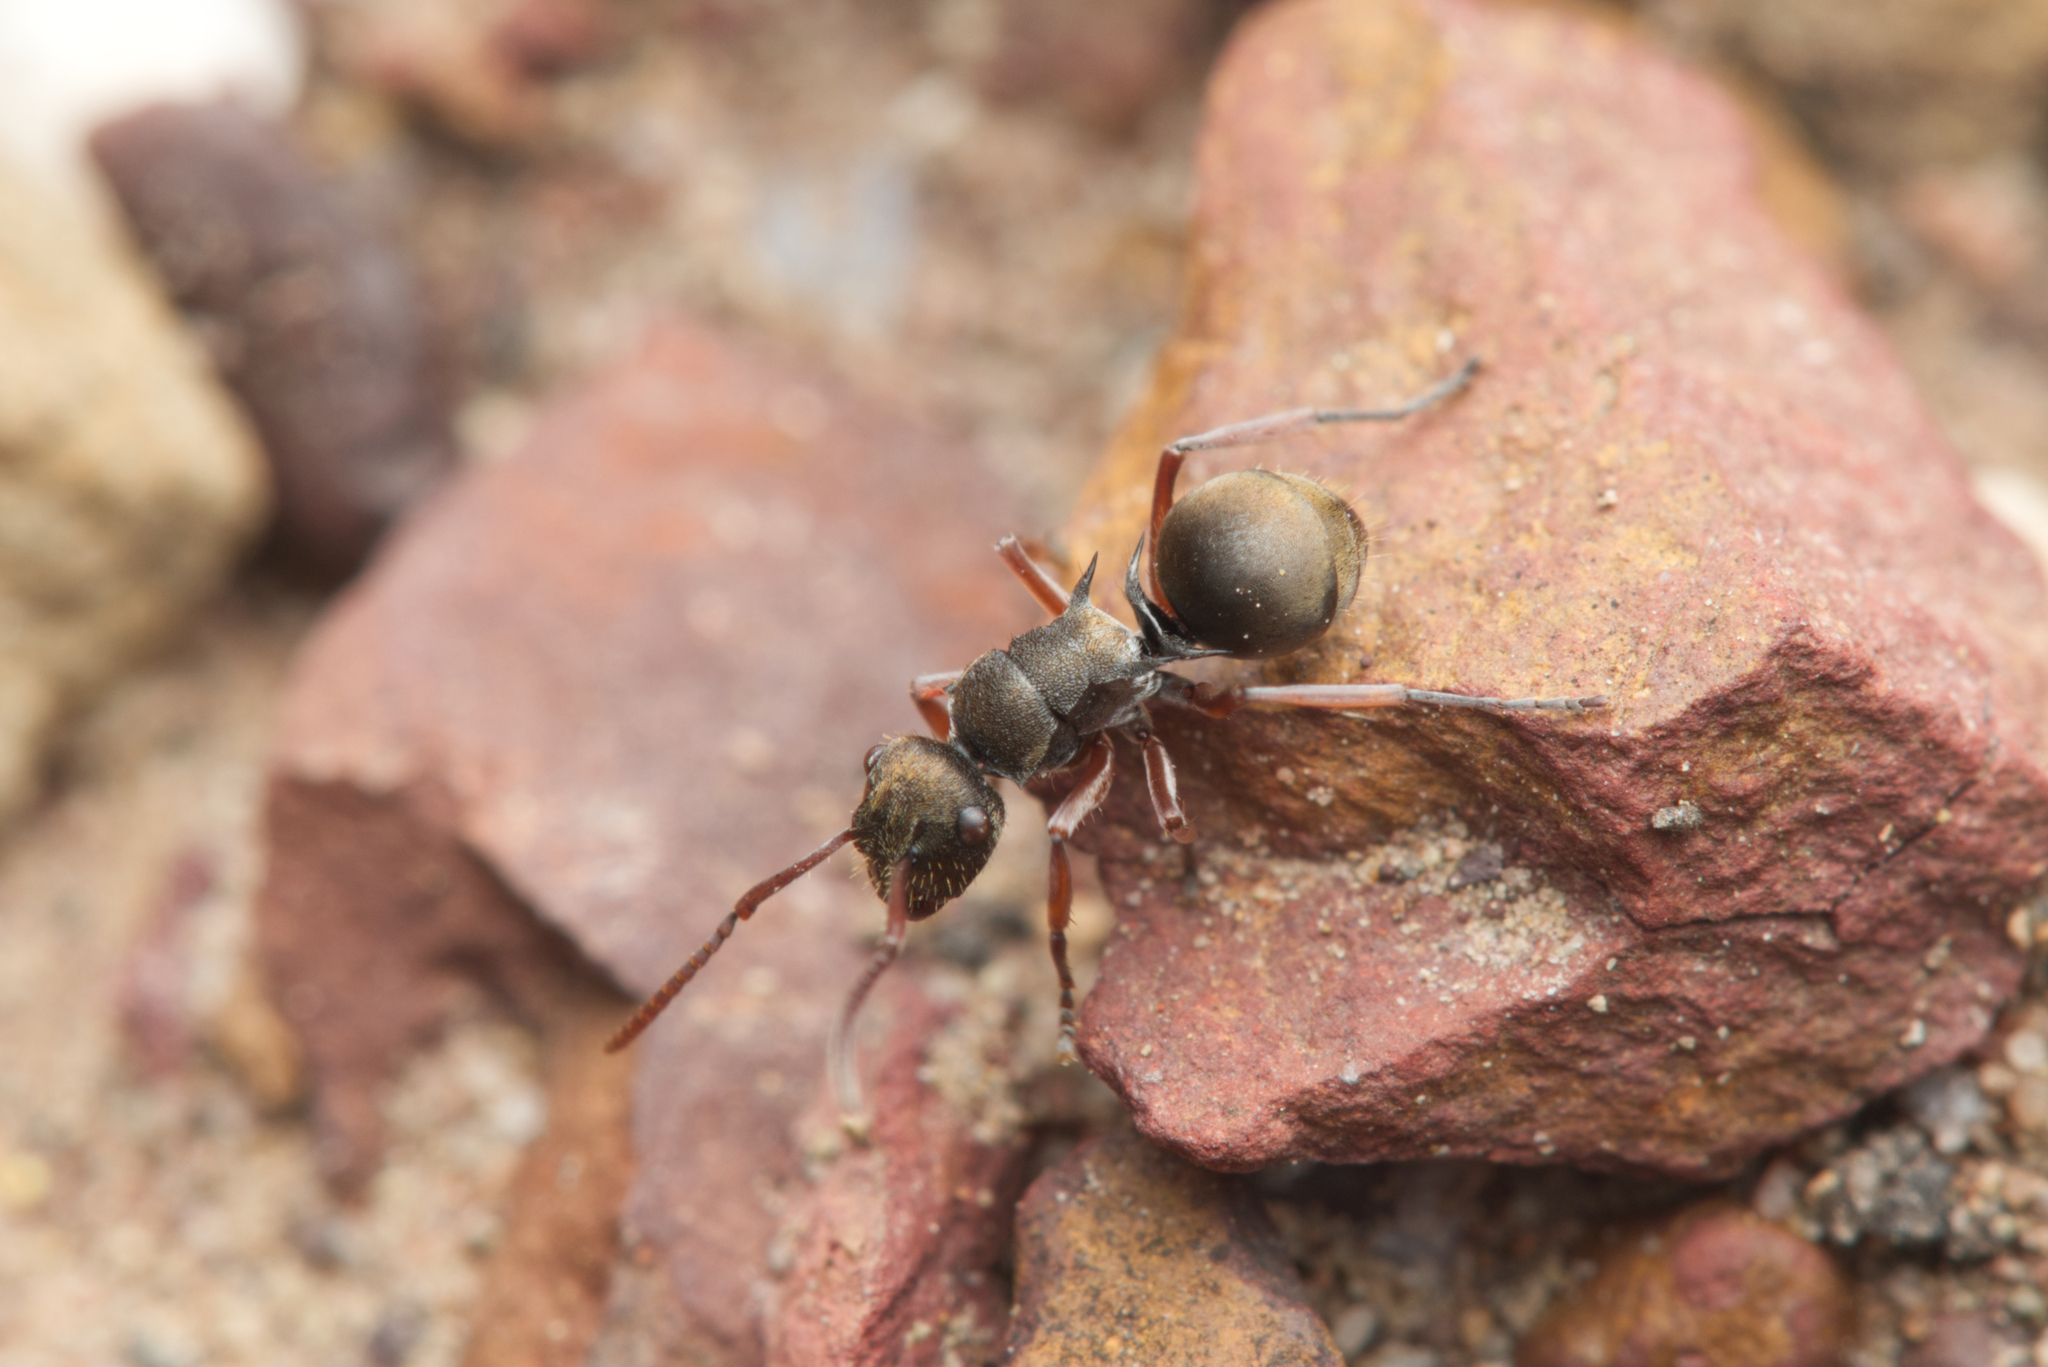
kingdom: Animalia
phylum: Arthropoda
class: Insecta
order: Hymenoptera
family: Formicidae
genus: Polyrhachis
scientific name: Polyrhachis cyrus
